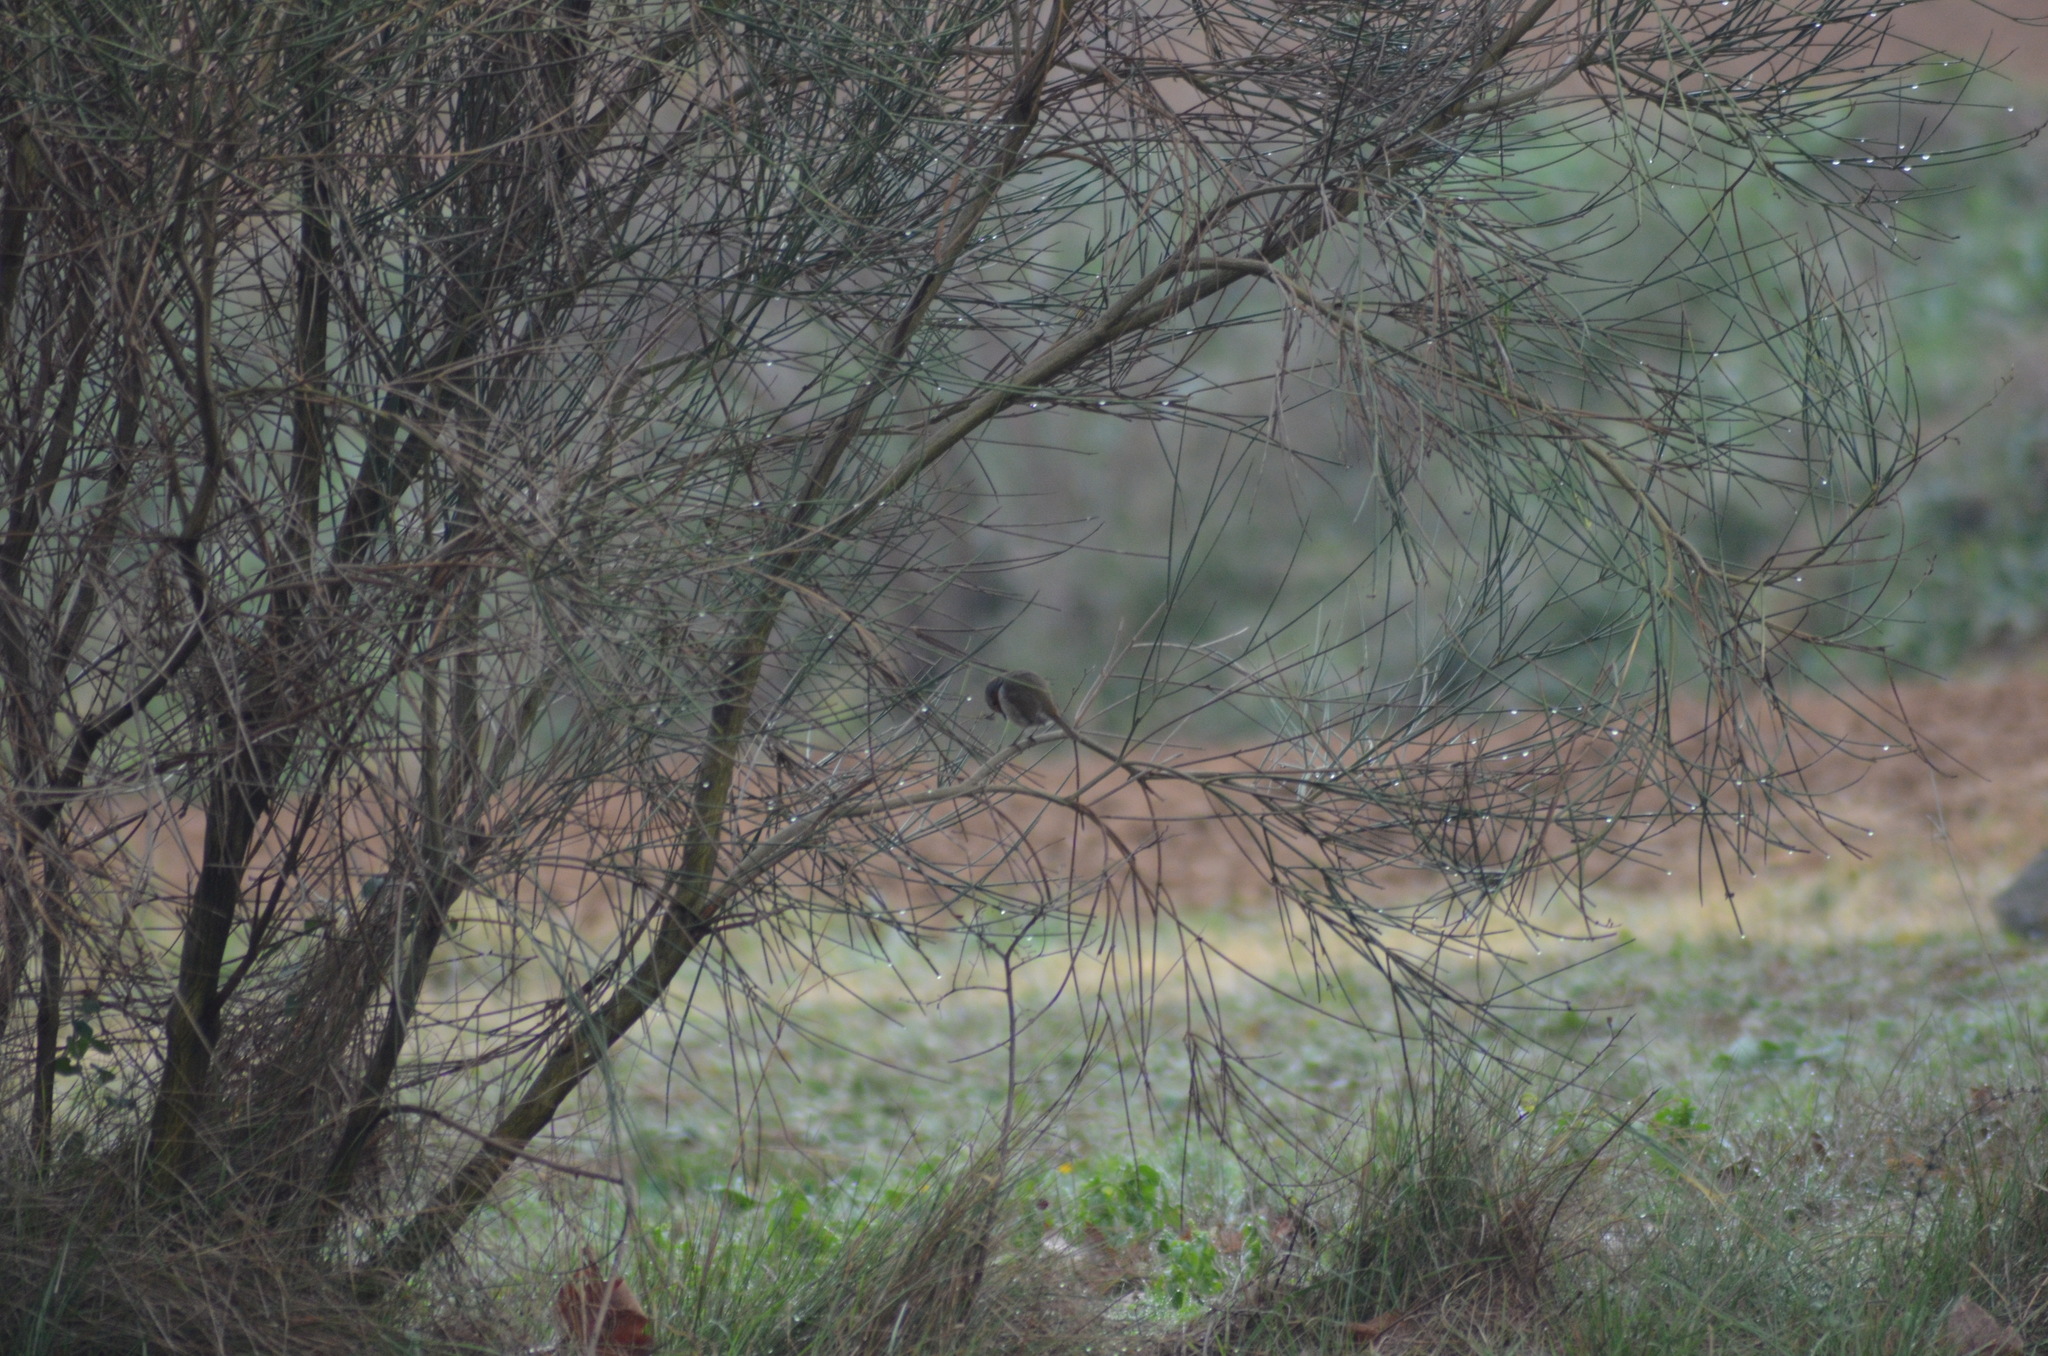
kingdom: Animalia
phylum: Chordata
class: Aves
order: Passeriformes
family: Muscicapidae
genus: Erithacus
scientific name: Erithacus rubecula
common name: European robin
